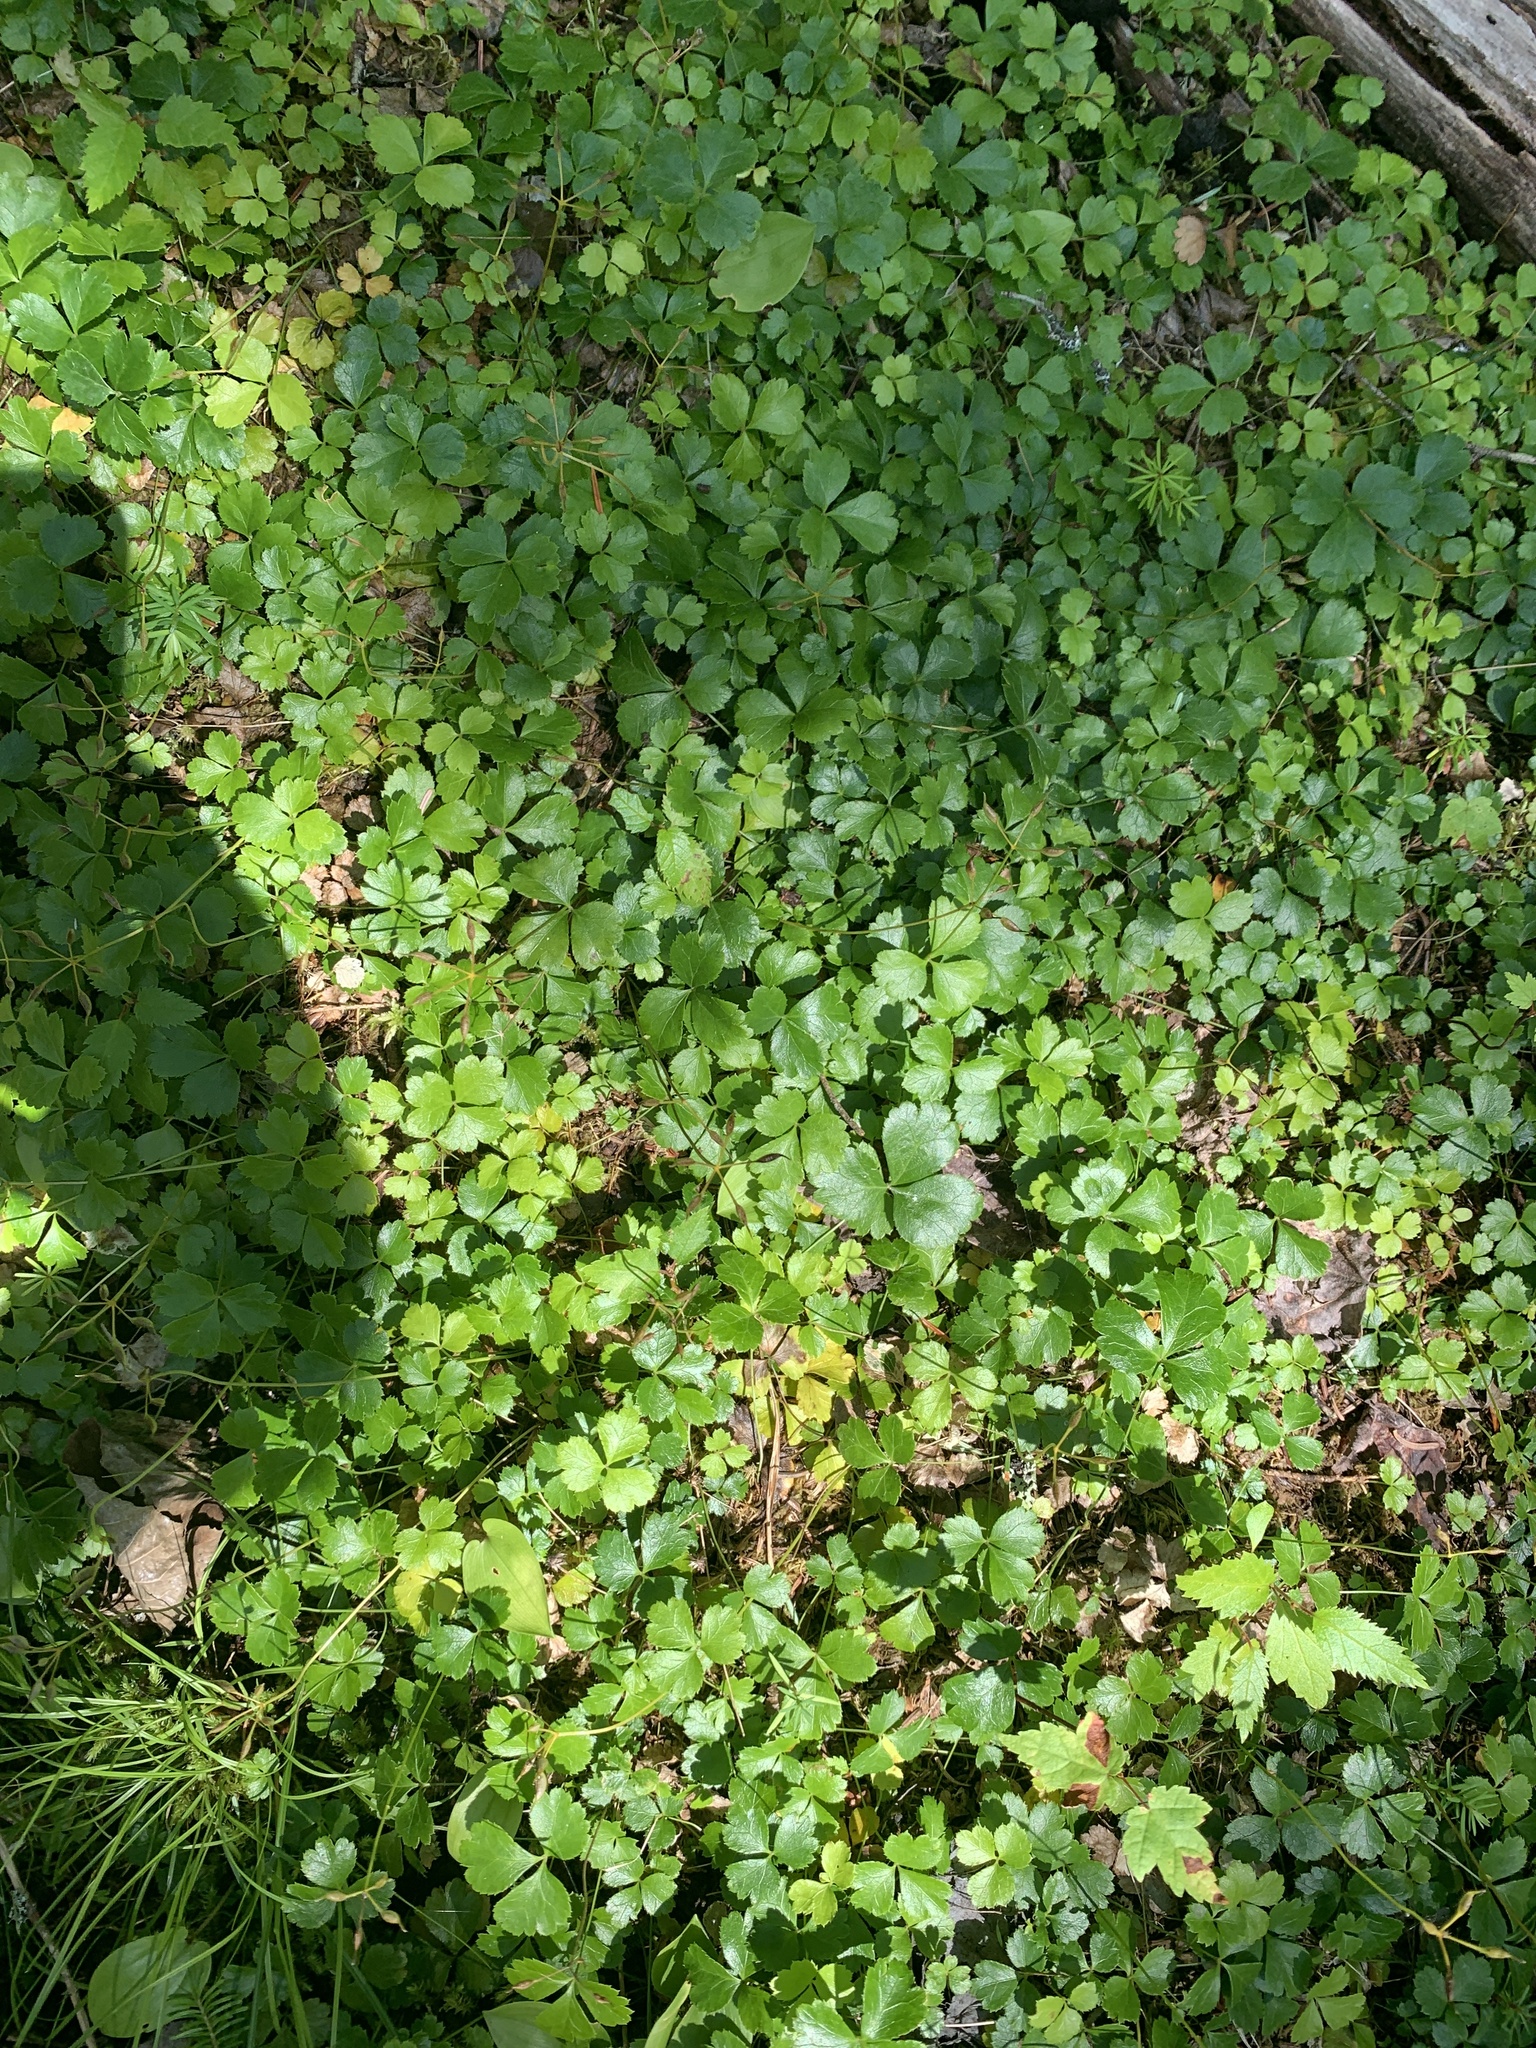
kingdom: Plantae
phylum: Tracheophyta
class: Magnoliopsida
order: Ranunculales
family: Ranunculaceae
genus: Coptis
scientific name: Coptis trifolia
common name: Canker-root
